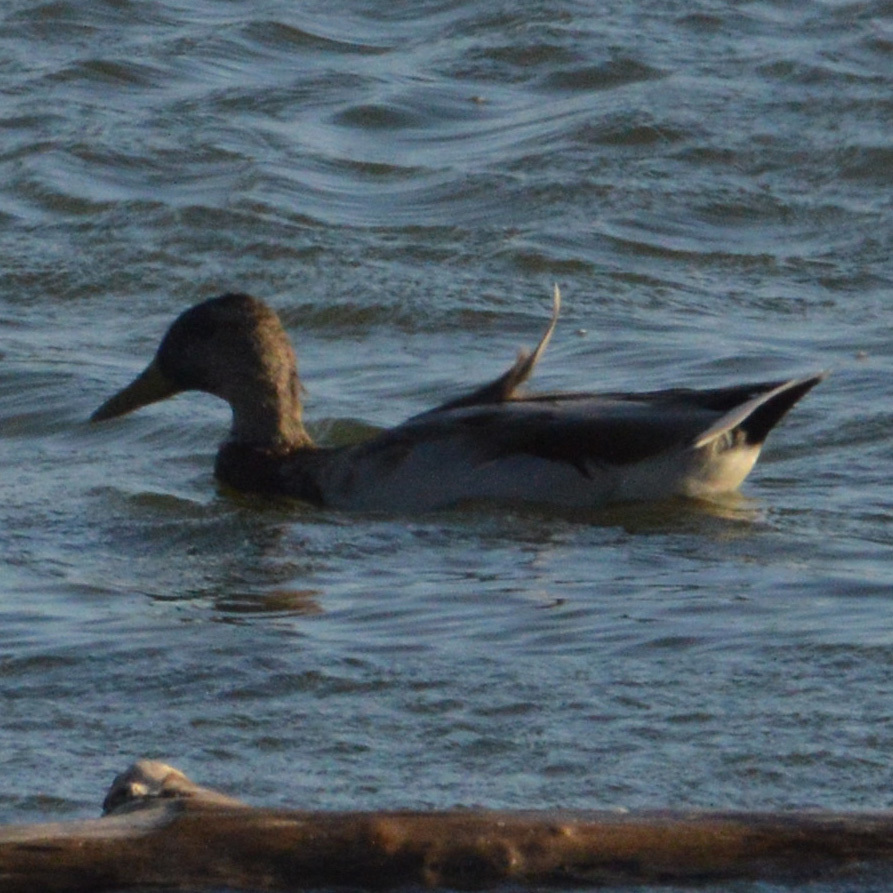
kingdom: Animalia
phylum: Chordata
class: Aves
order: Anseriformes
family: Anatidae
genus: Anas
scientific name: Anas platyrhynchos
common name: Mallard
